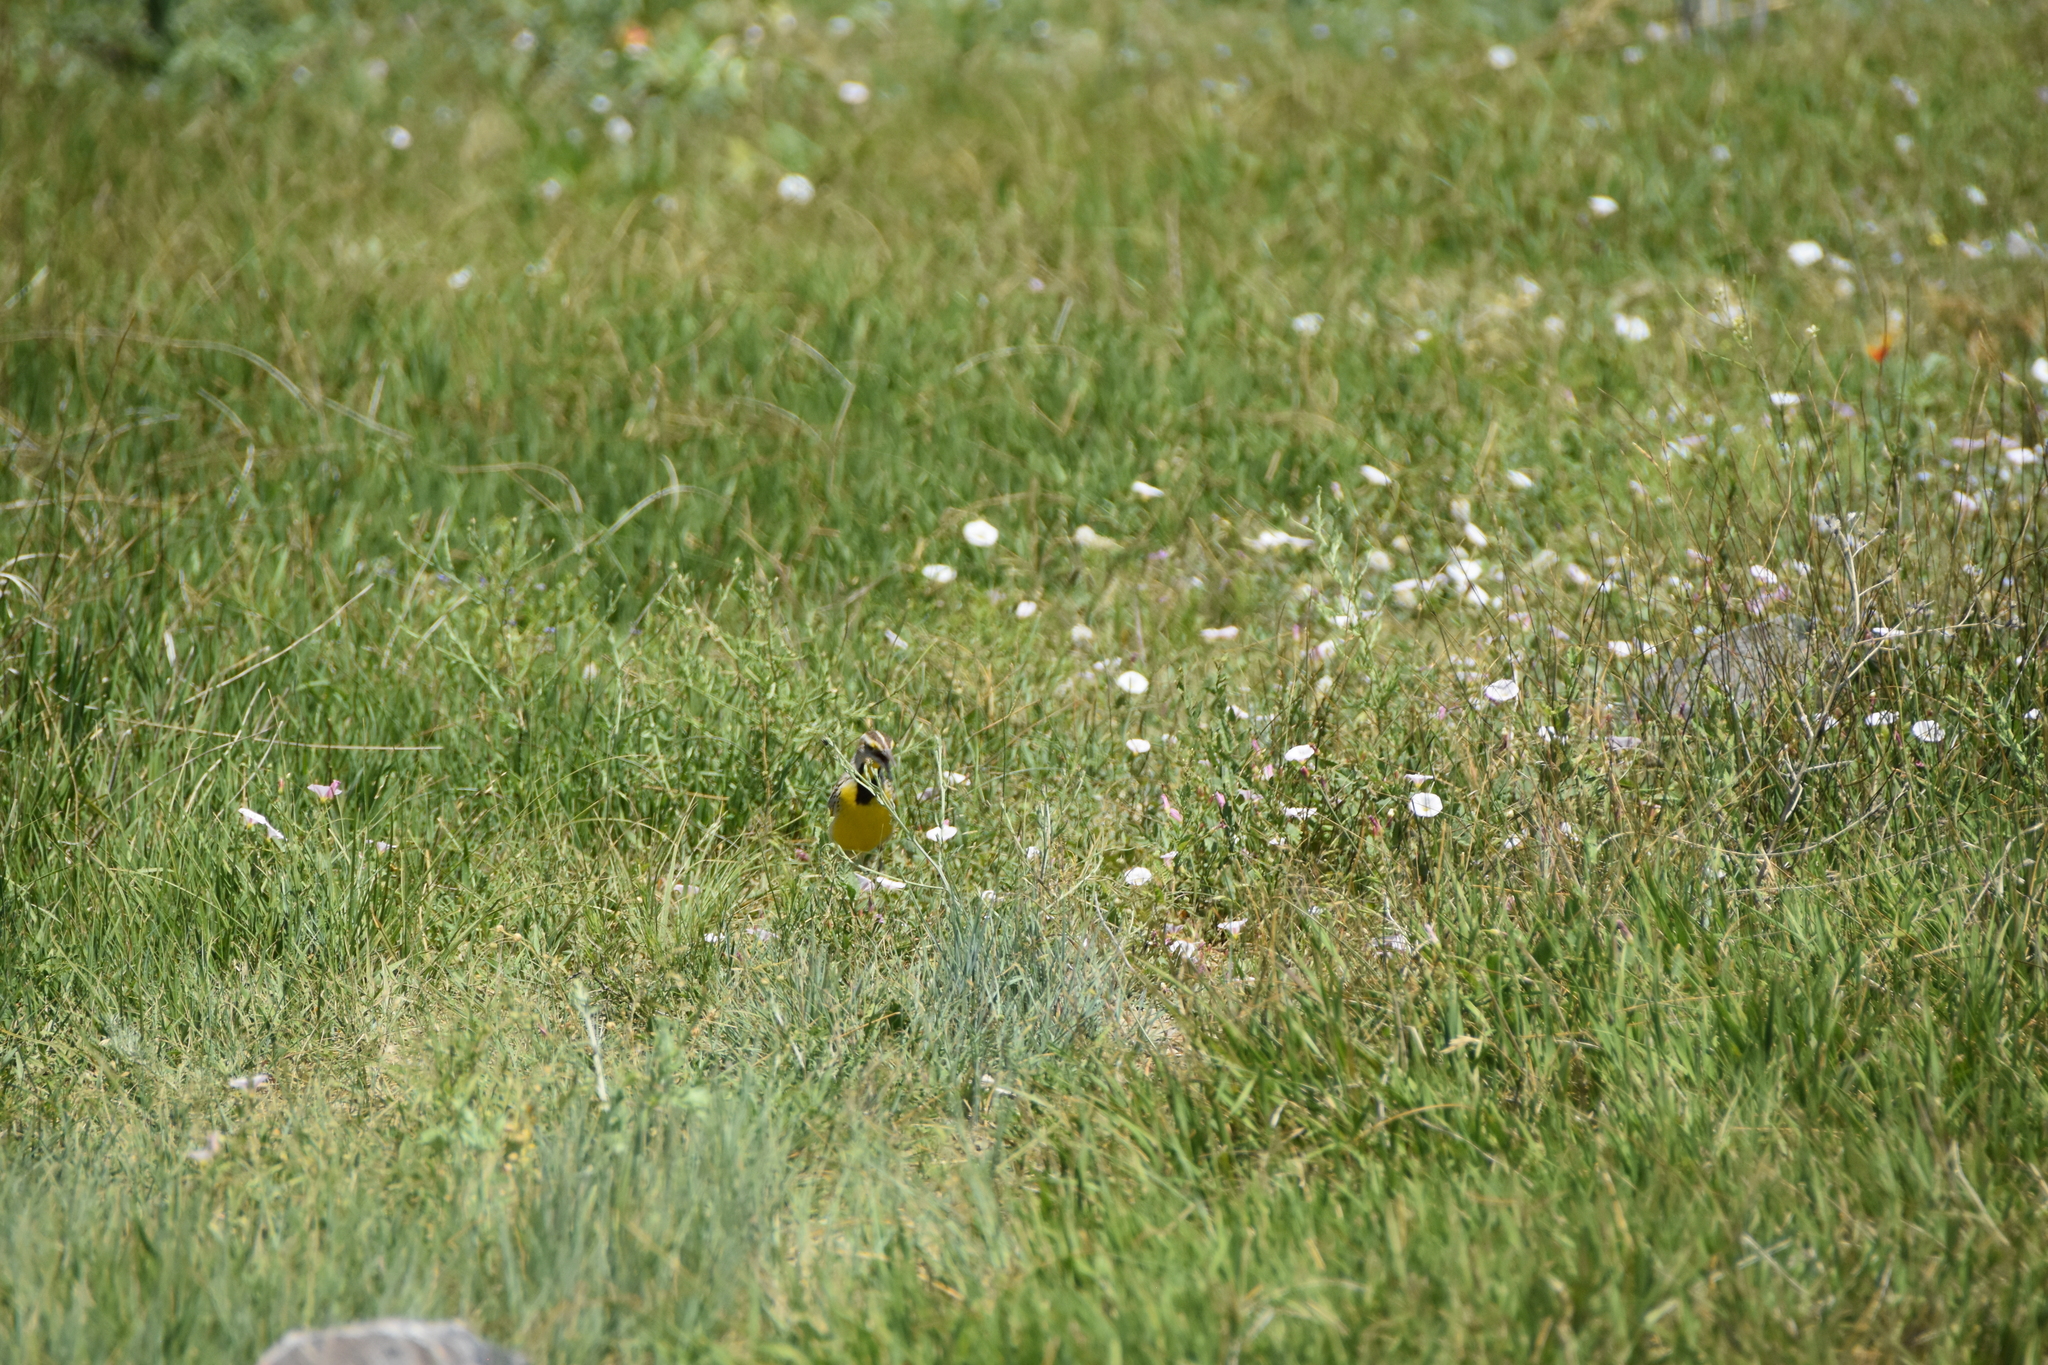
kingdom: Animalia
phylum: Chordata
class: Aves
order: Passeriformes
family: Icteridae
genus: Sturnella
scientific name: Sturnella neglecta
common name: Western meadowlark
